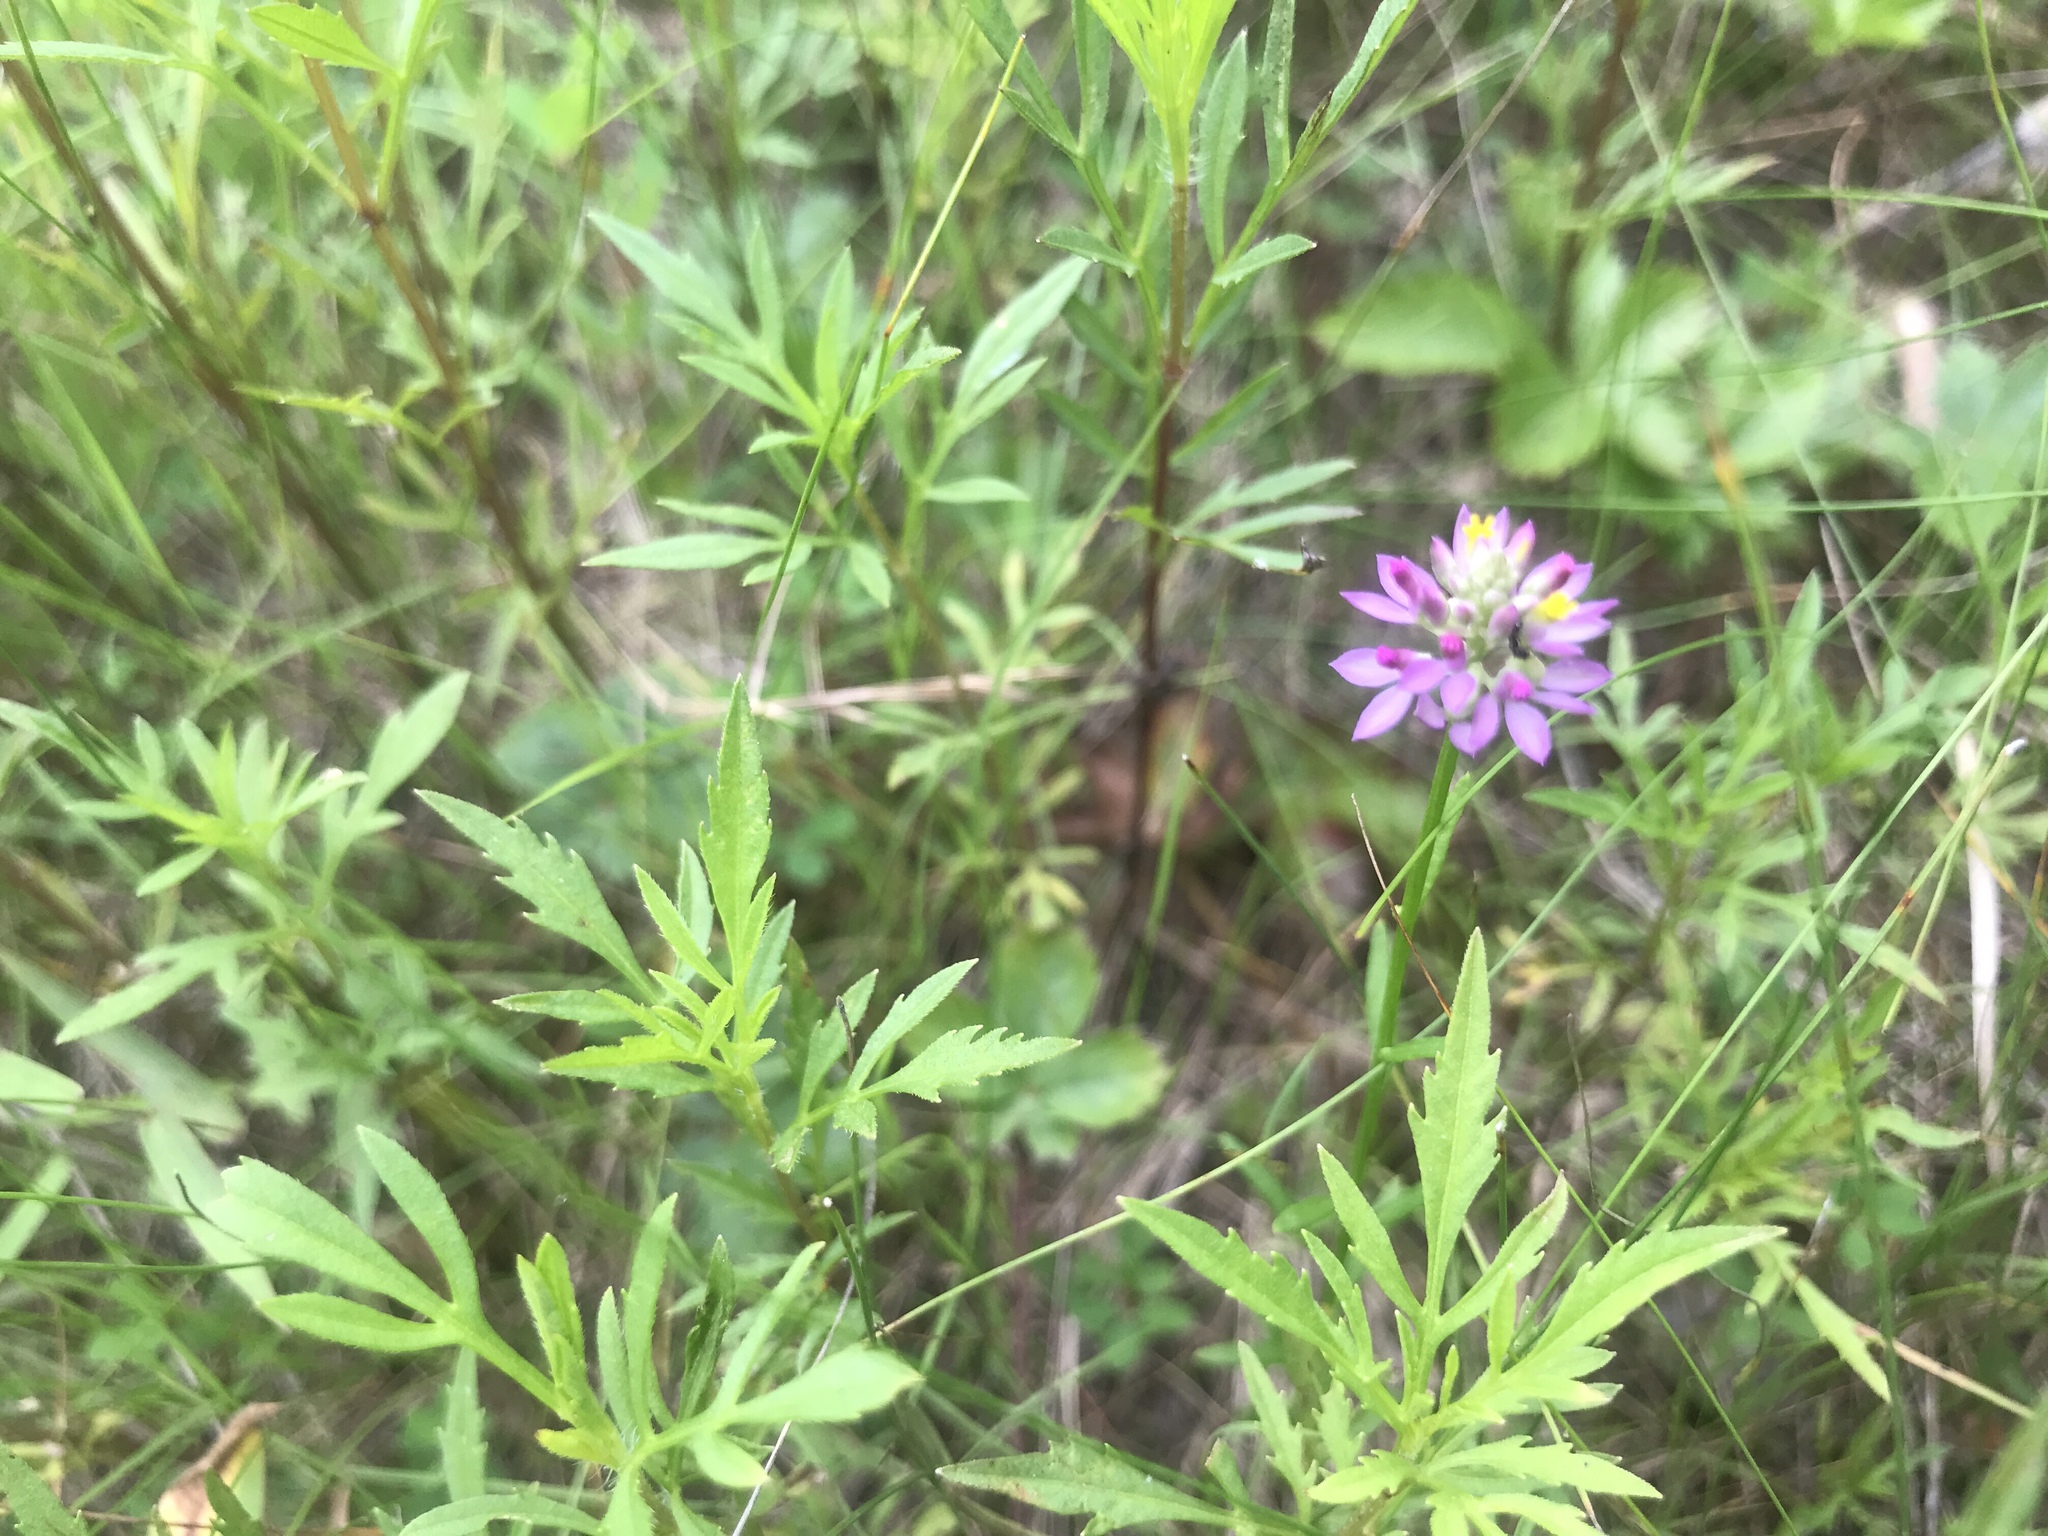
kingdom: Plantae
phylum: Tracheophyta
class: Magnoliopsida
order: Fabales
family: Polygalaceae
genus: Polygala
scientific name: Polygala curtissii
